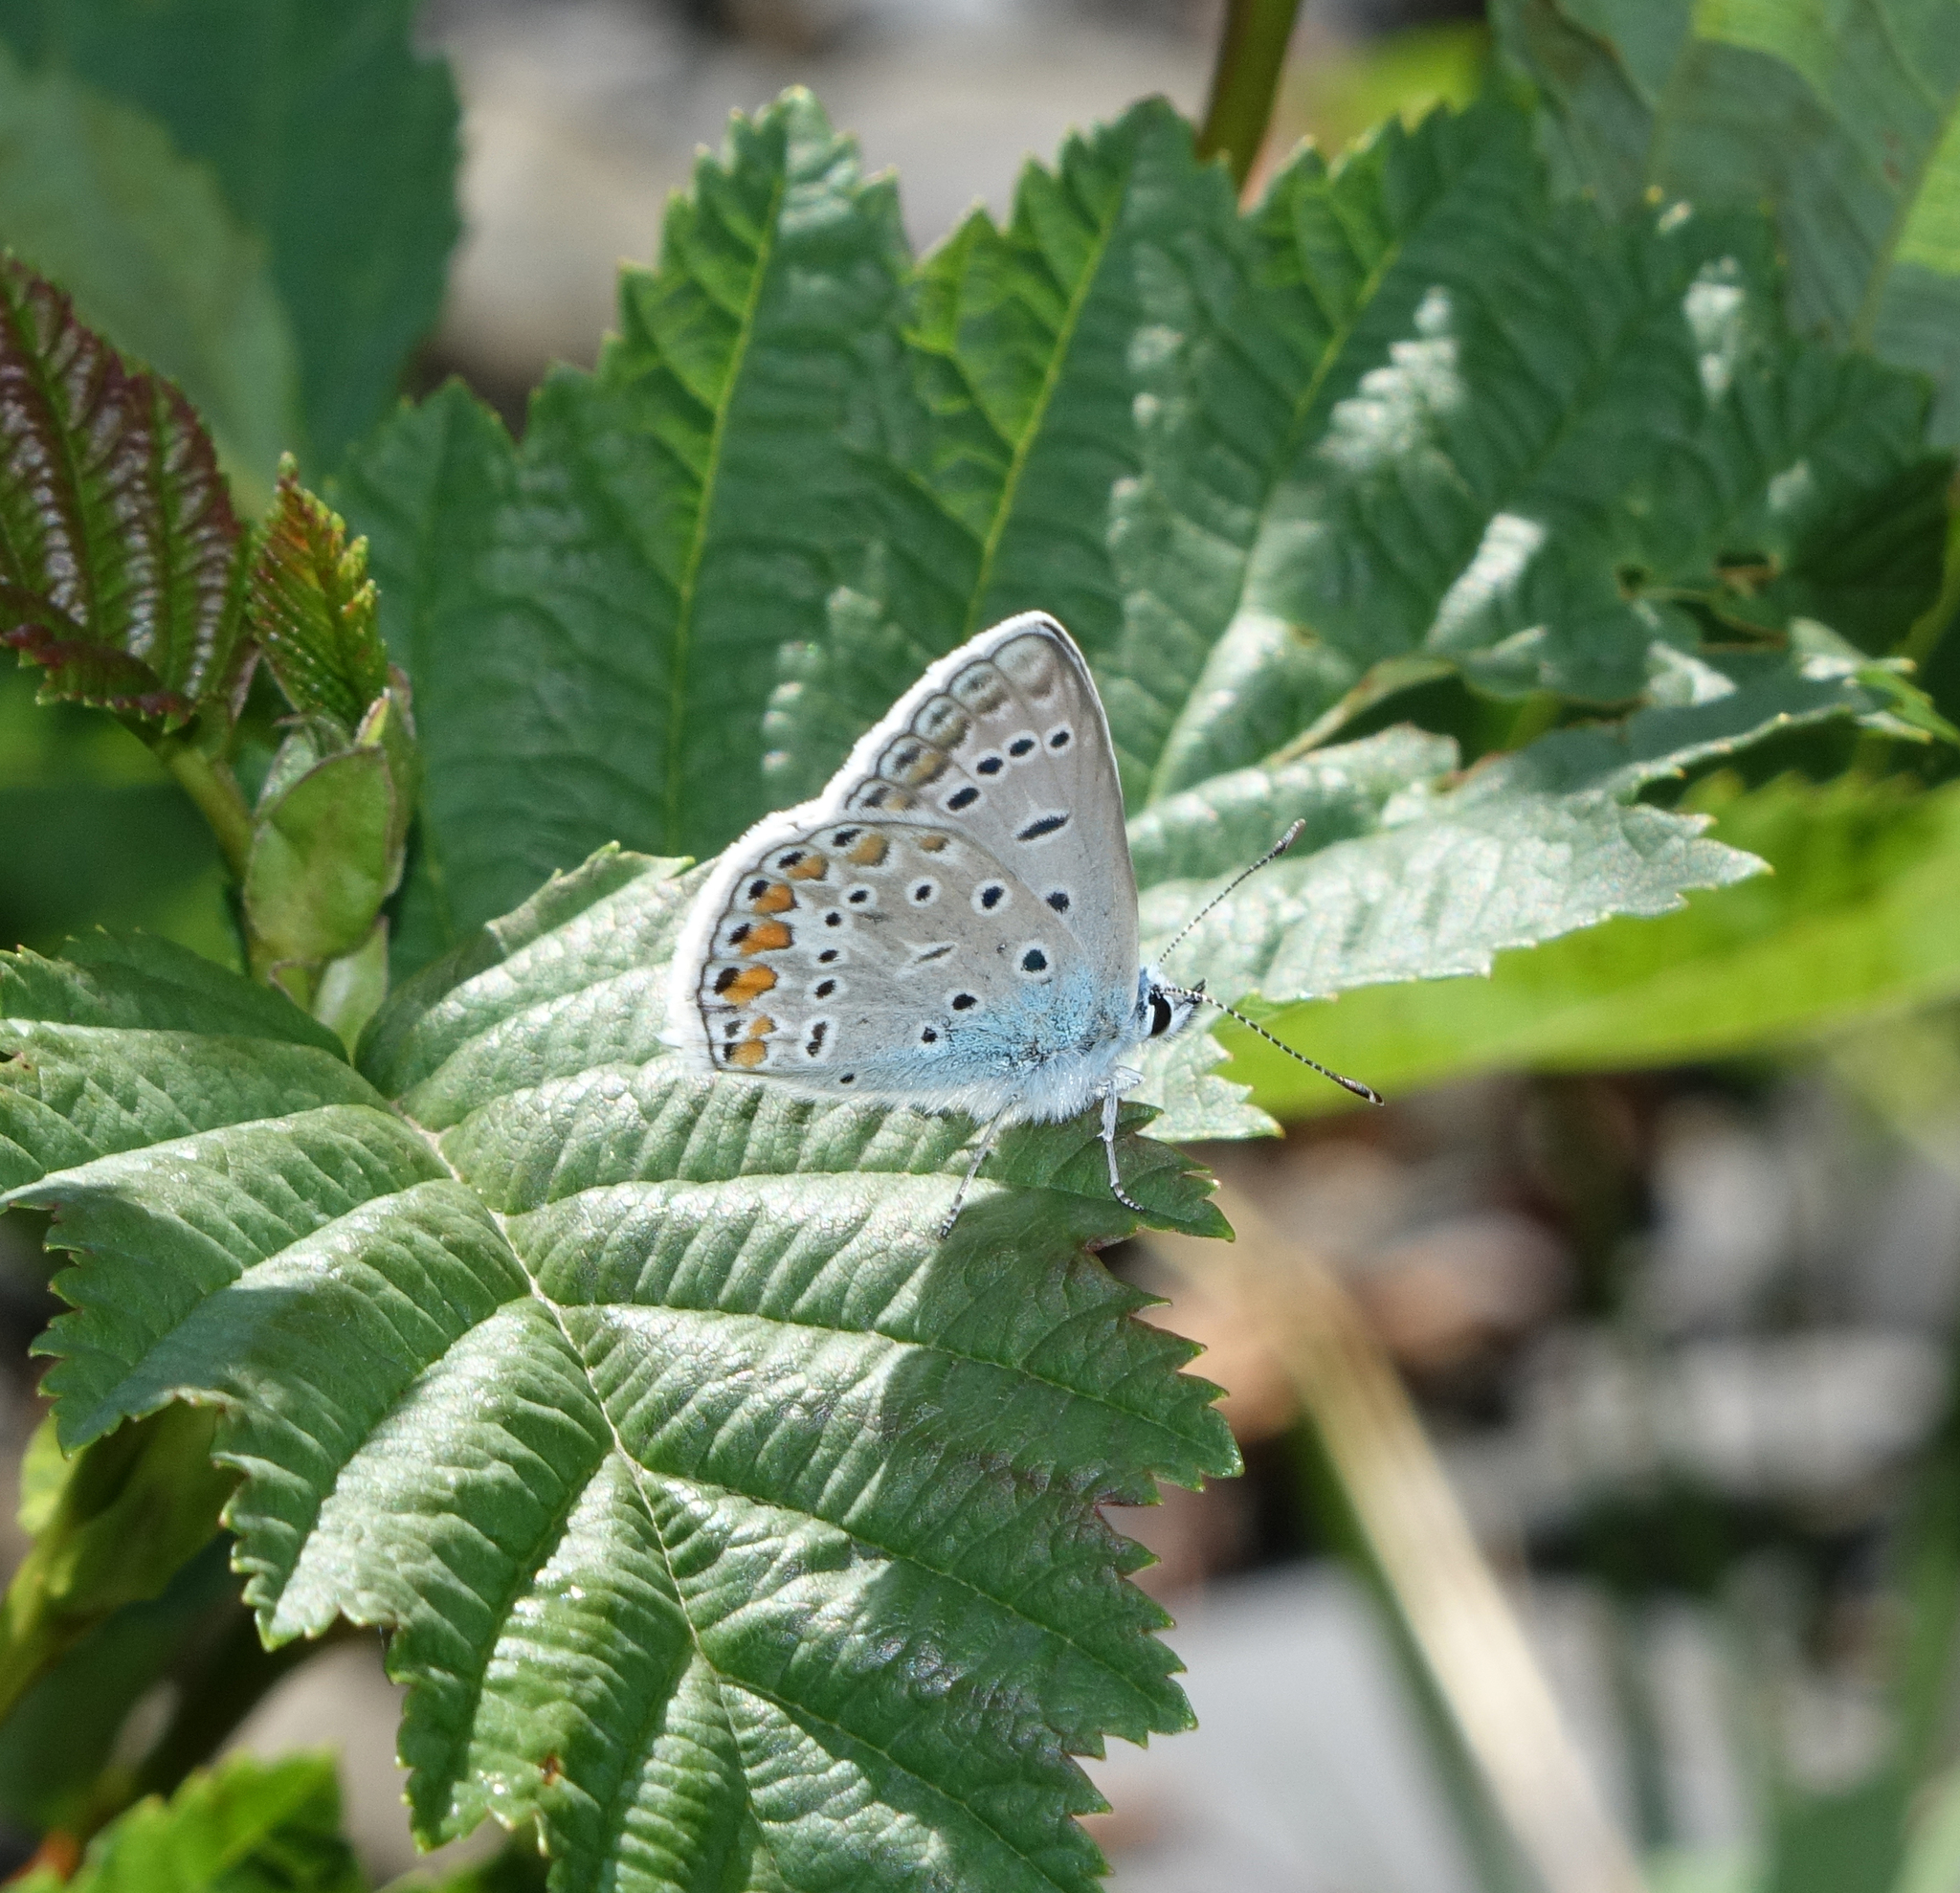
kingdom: Animalia
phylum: Arthropoda
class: Insecta
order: Lepidoptera
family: Lycaenidae
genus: Polyommatus
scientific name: Polyommatus icarus
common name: Common blue
